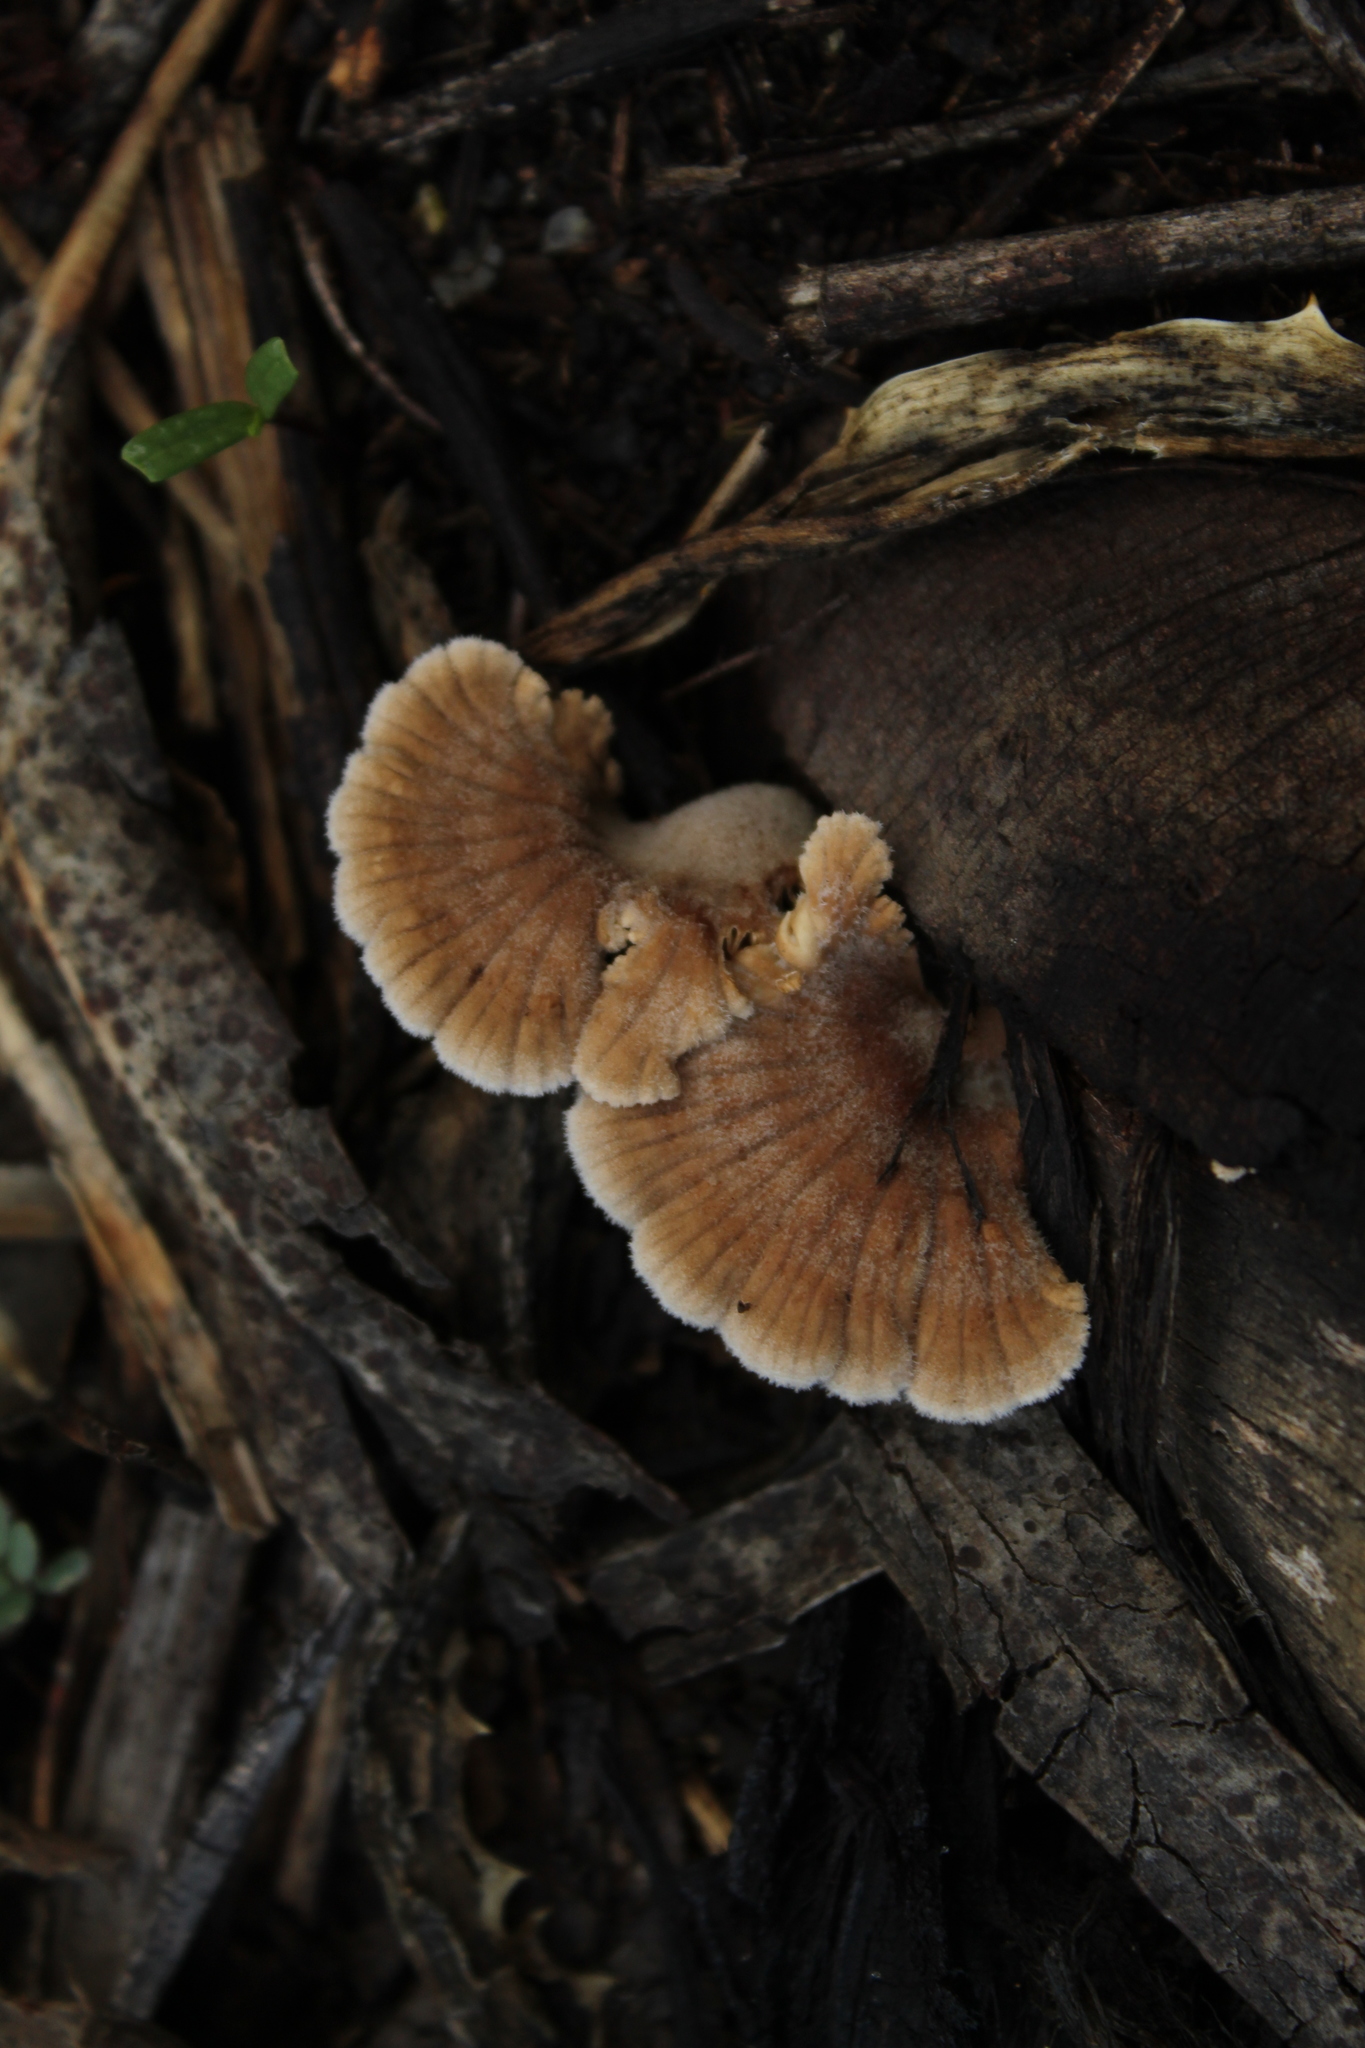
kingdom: Fungi
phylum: Basidiomycota
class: Agaricomycetes
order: Agaricales
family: Schizophyllaceae
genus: Schizophyllum
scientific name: Schizophyllum commune
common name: Common porecrust
